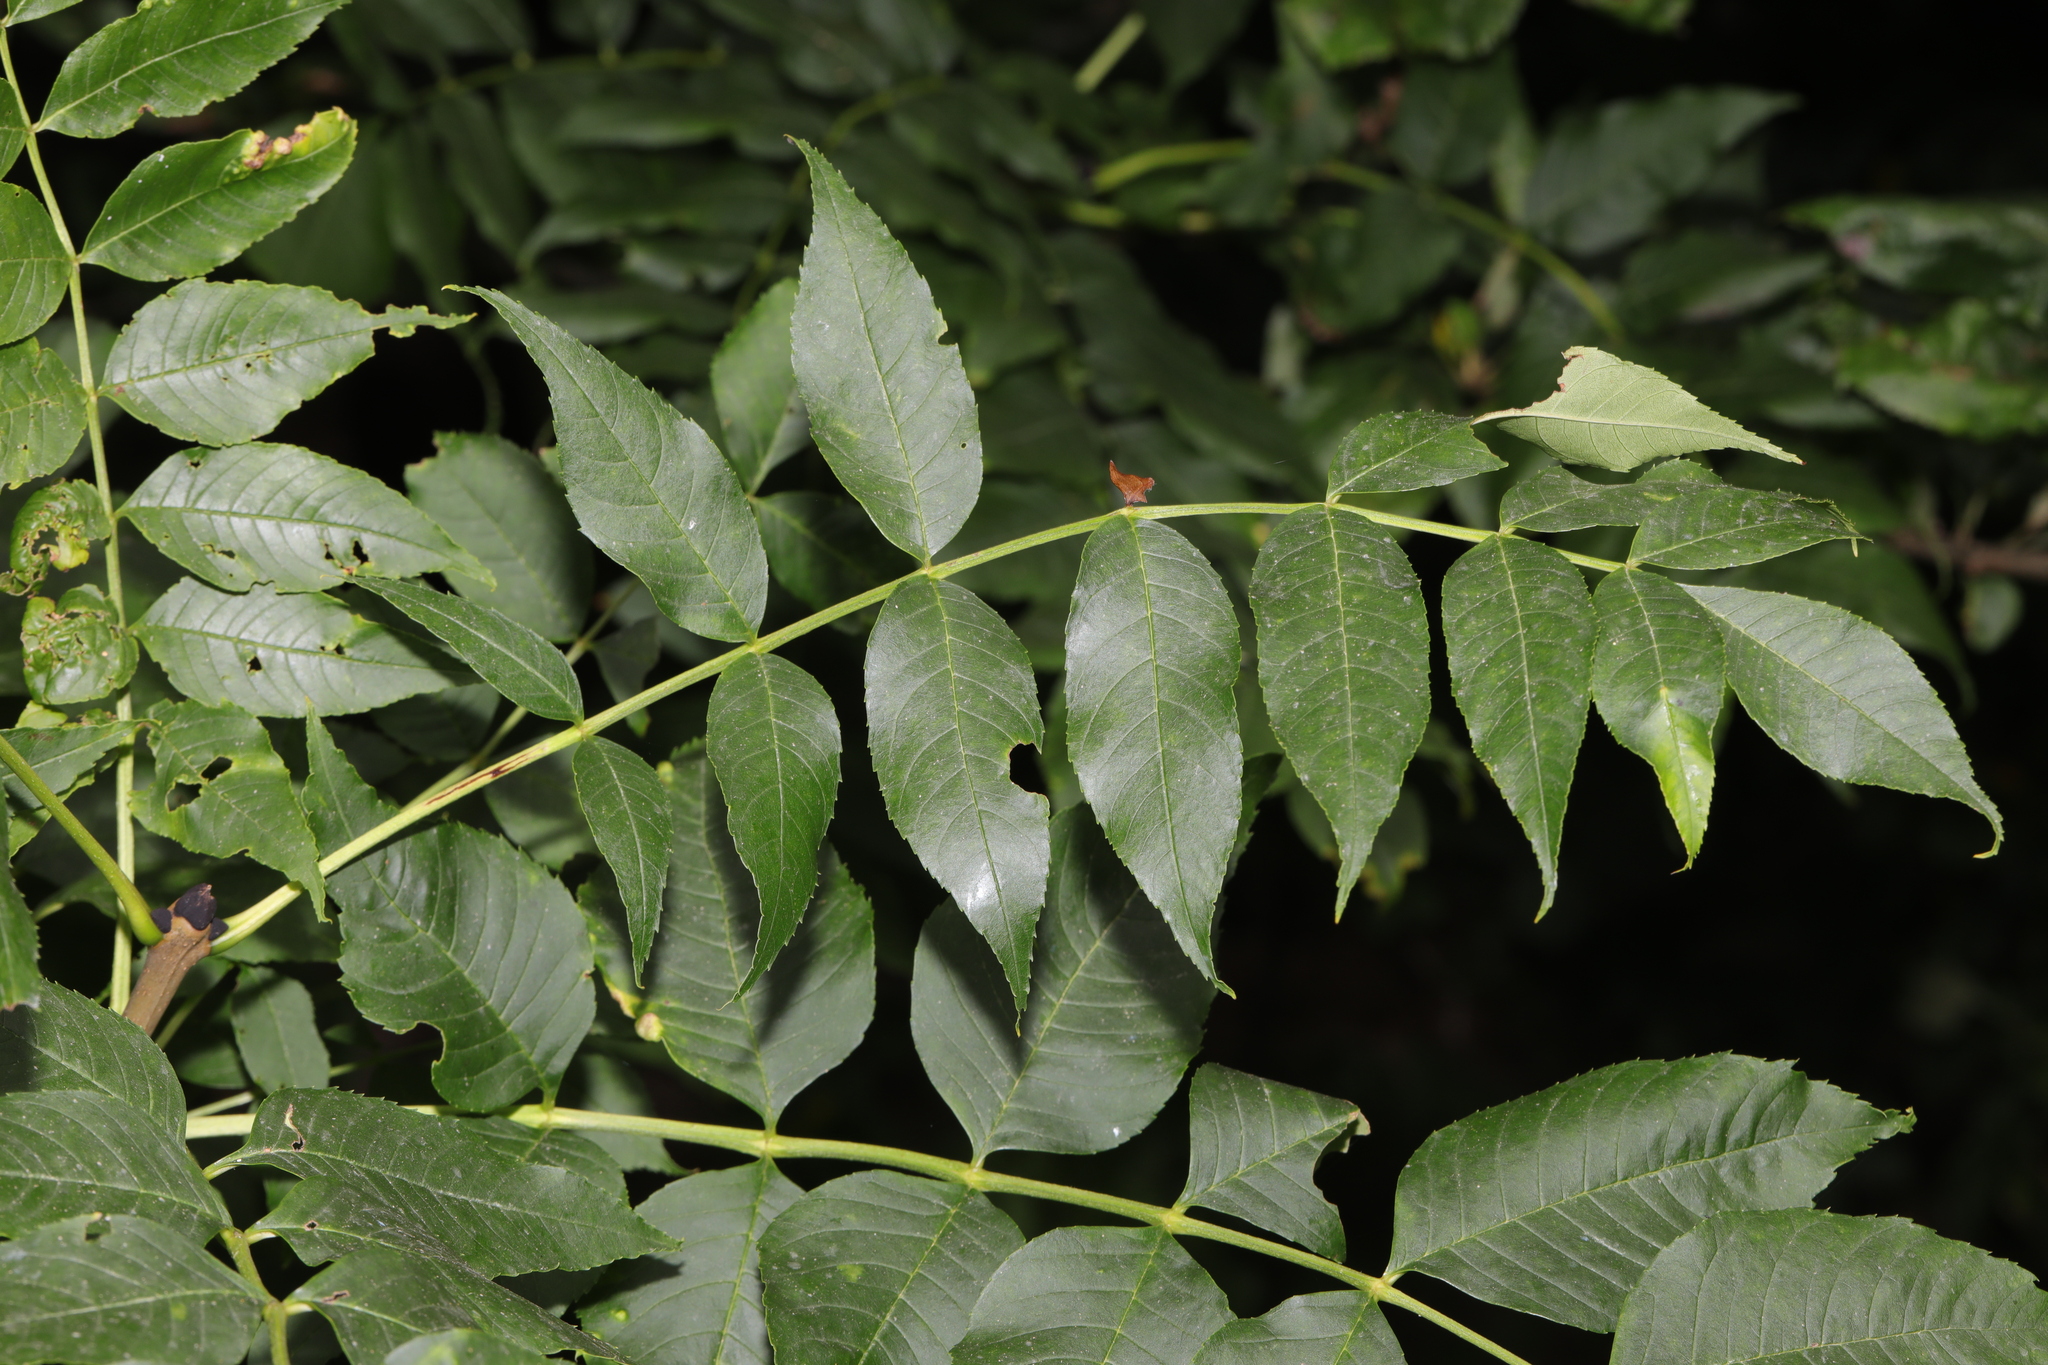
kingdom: Plantae
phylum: Tracheophyta
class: Magnoliopsida
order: Lamiales
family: Oleaceae
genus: Fraxinus
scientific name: Fraxinus excelsior
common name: European ash
